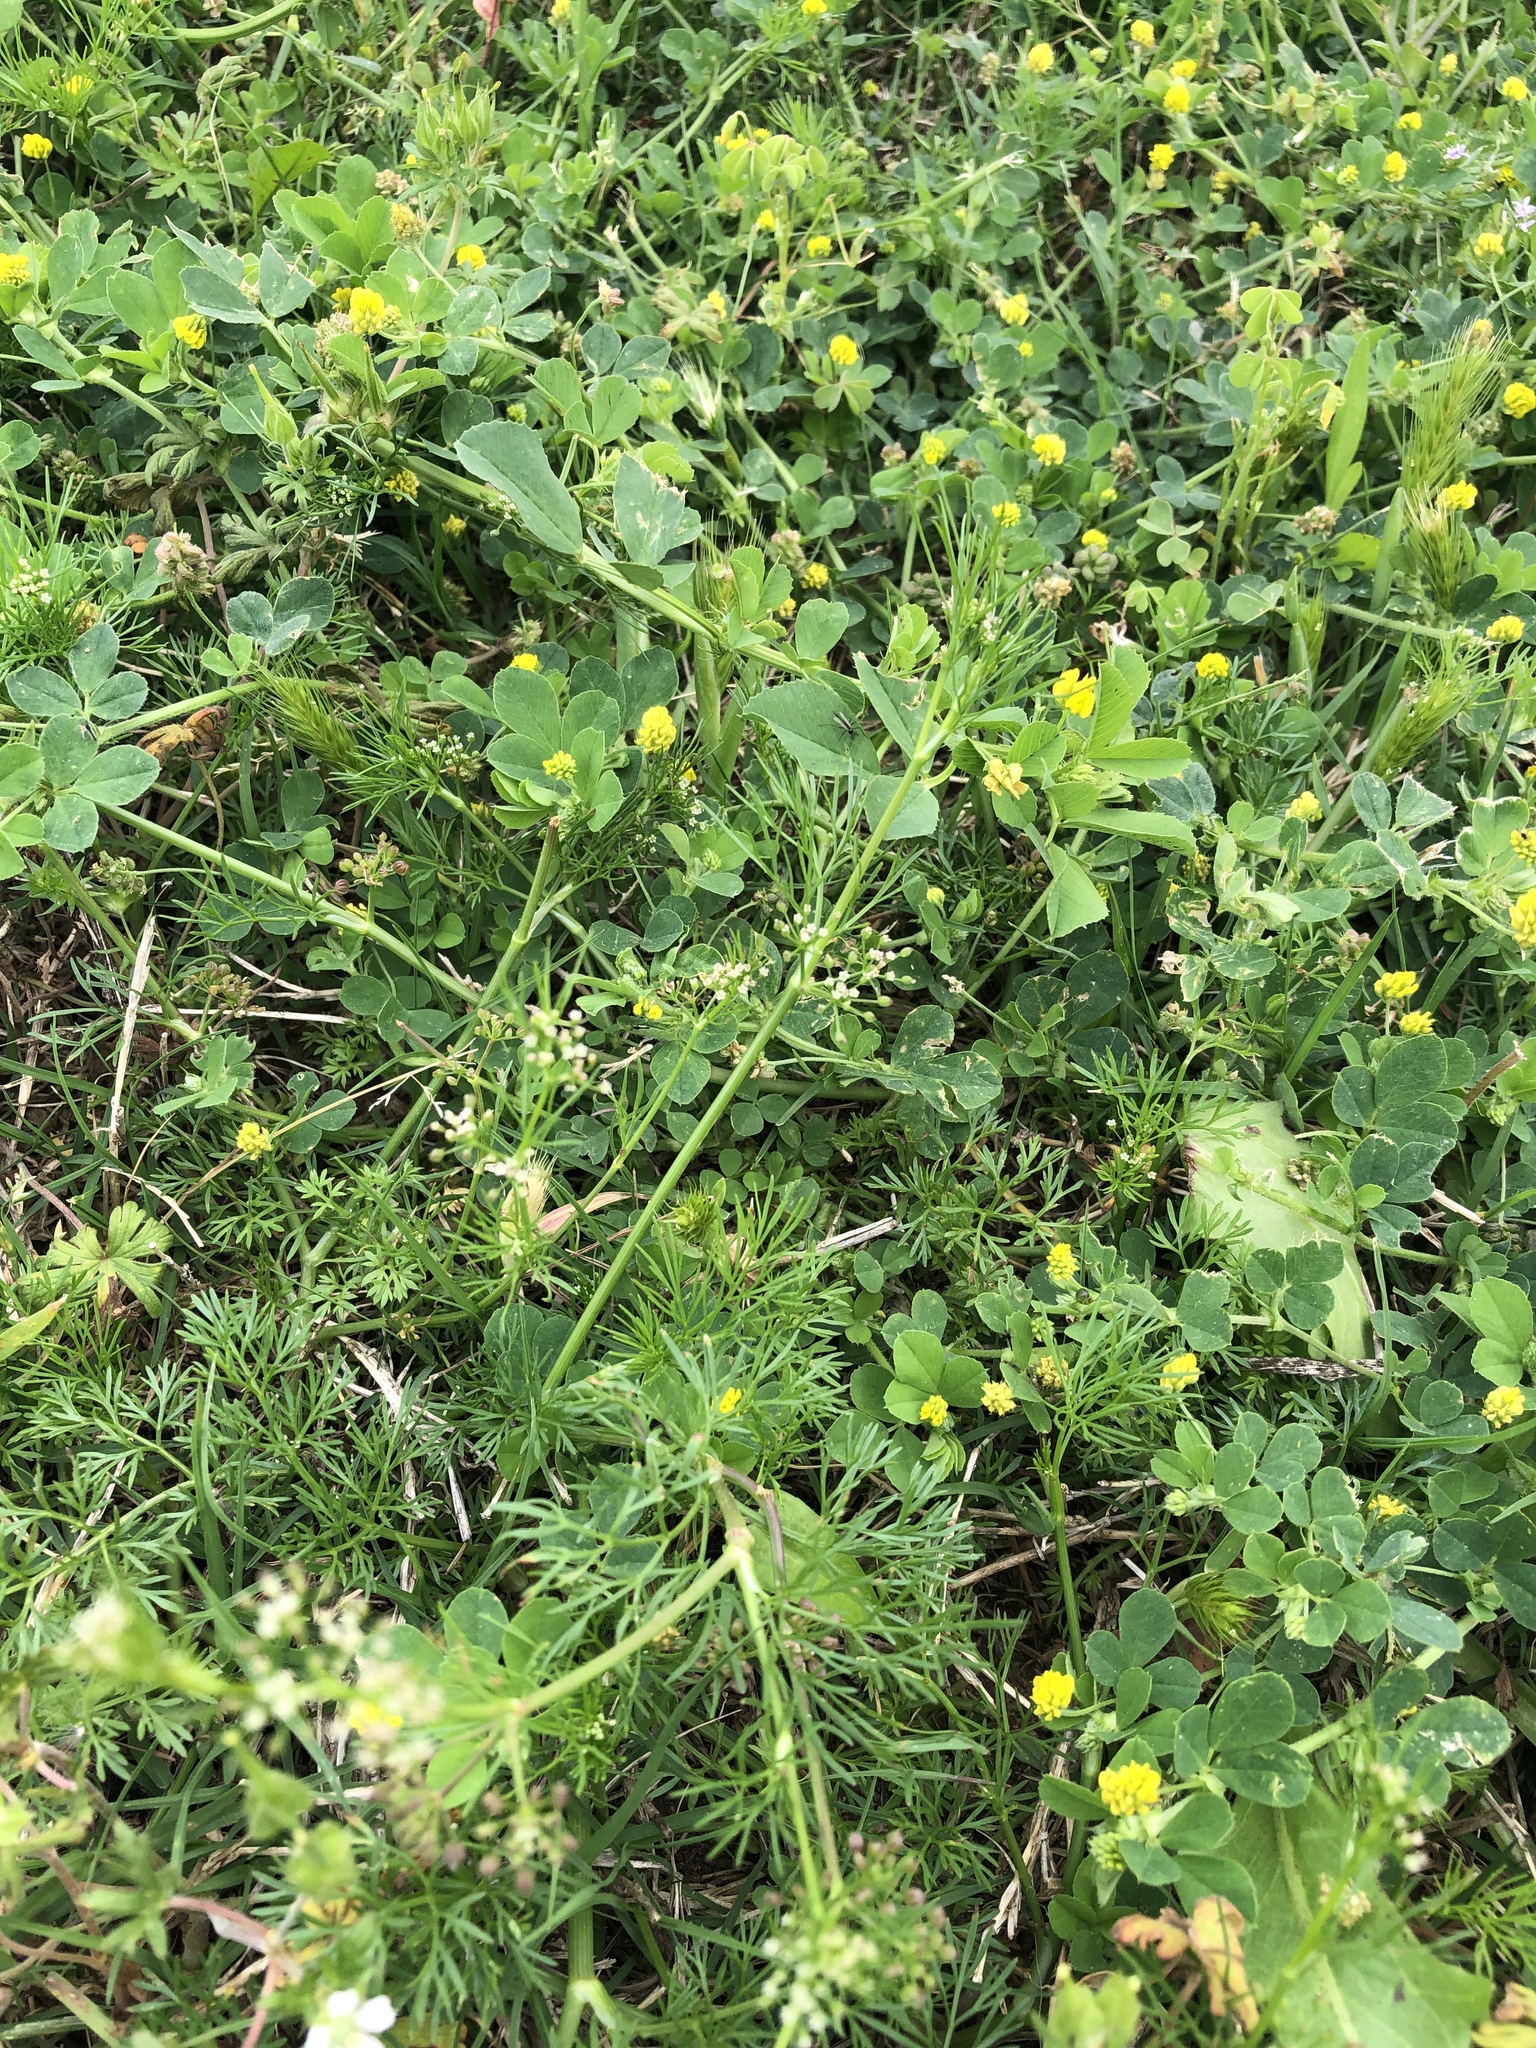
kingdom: Plantae
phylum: Tracheophyta
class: Magnoliopsida
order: Apiales
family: Apiaceae
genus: Cyclospermum
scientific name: Cyclospermum leptophyllum
